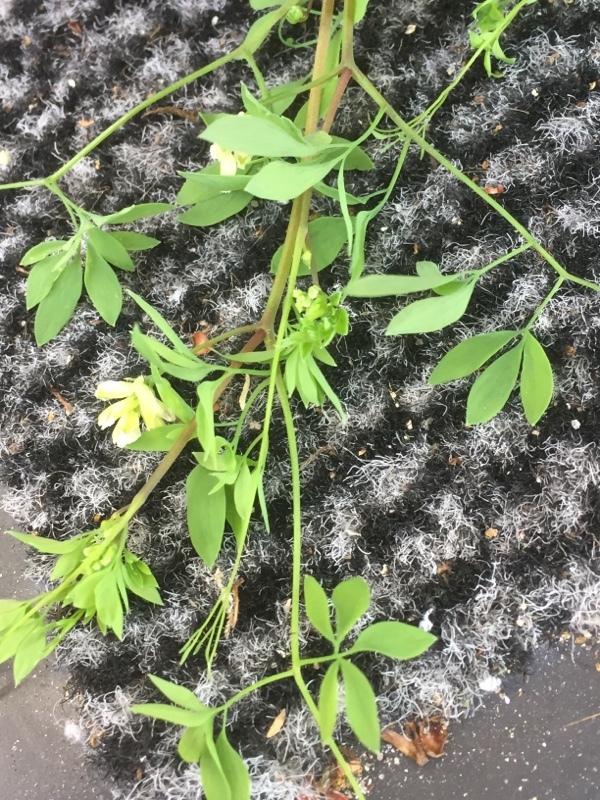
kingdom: Plantae
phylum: Tracheophyta
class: Magnoliopsida
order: Ranunculales
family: Papaveraceae
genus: Ceratocapnos
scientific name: Ceratocapnos claviculata
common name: Climbing corydalis
